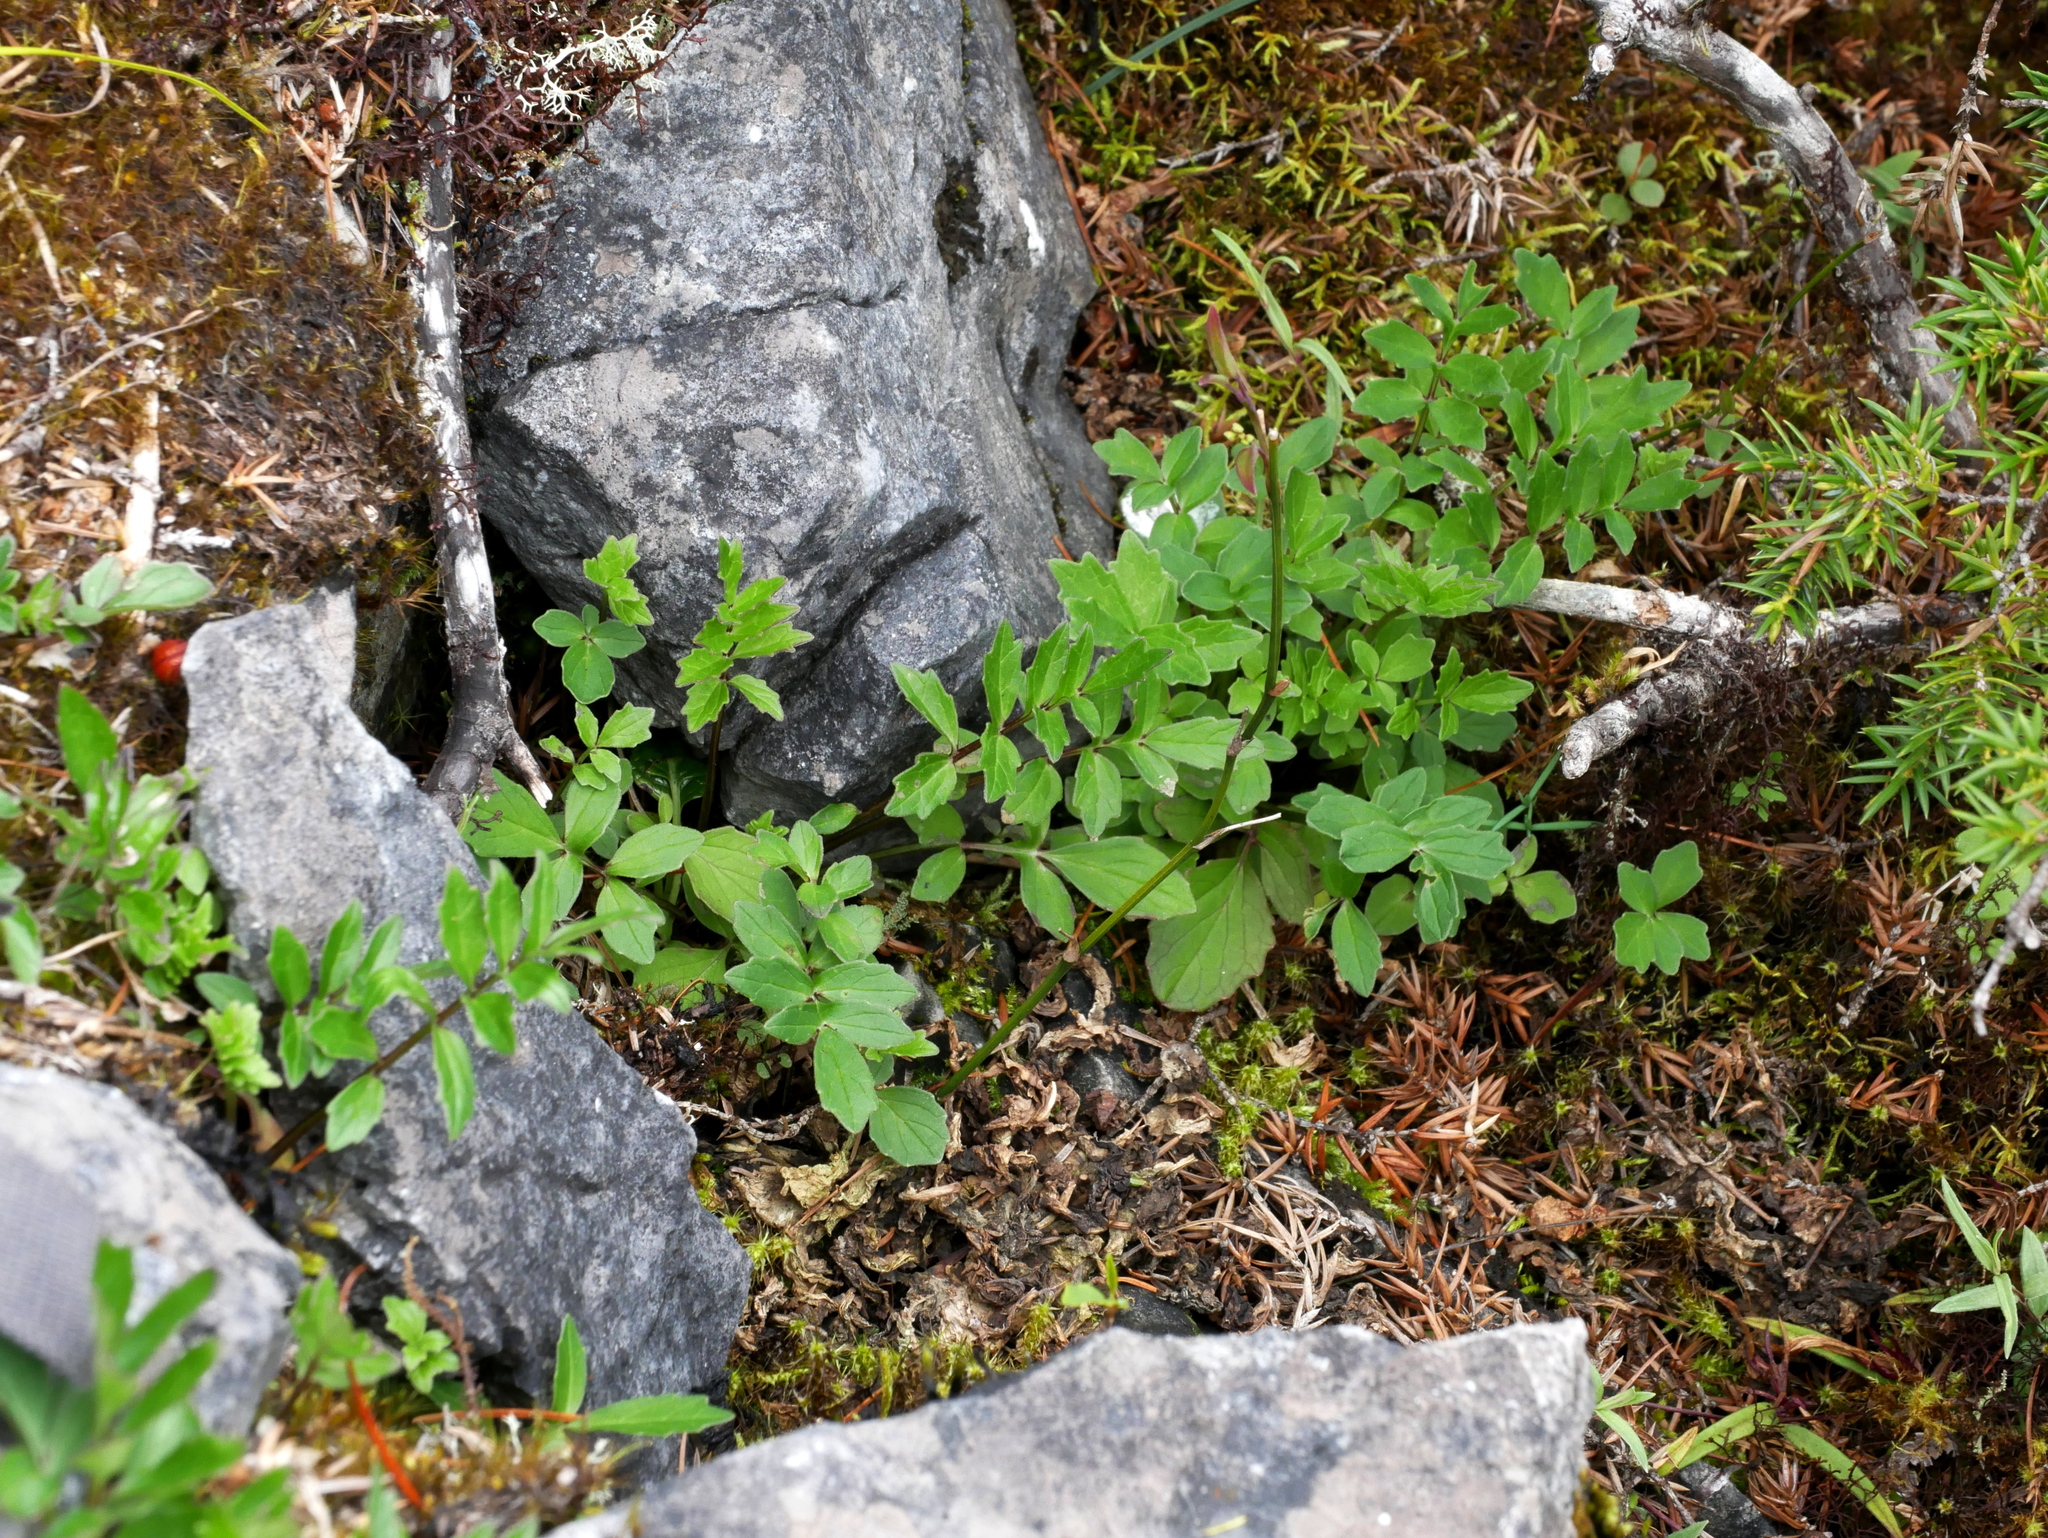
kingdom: Plantae
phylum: Tracheophyta
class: Magnoliopsida
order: Dipsacales
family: Caprifoliaceae
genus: Valeriana
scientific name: Valeriana kawakamii
